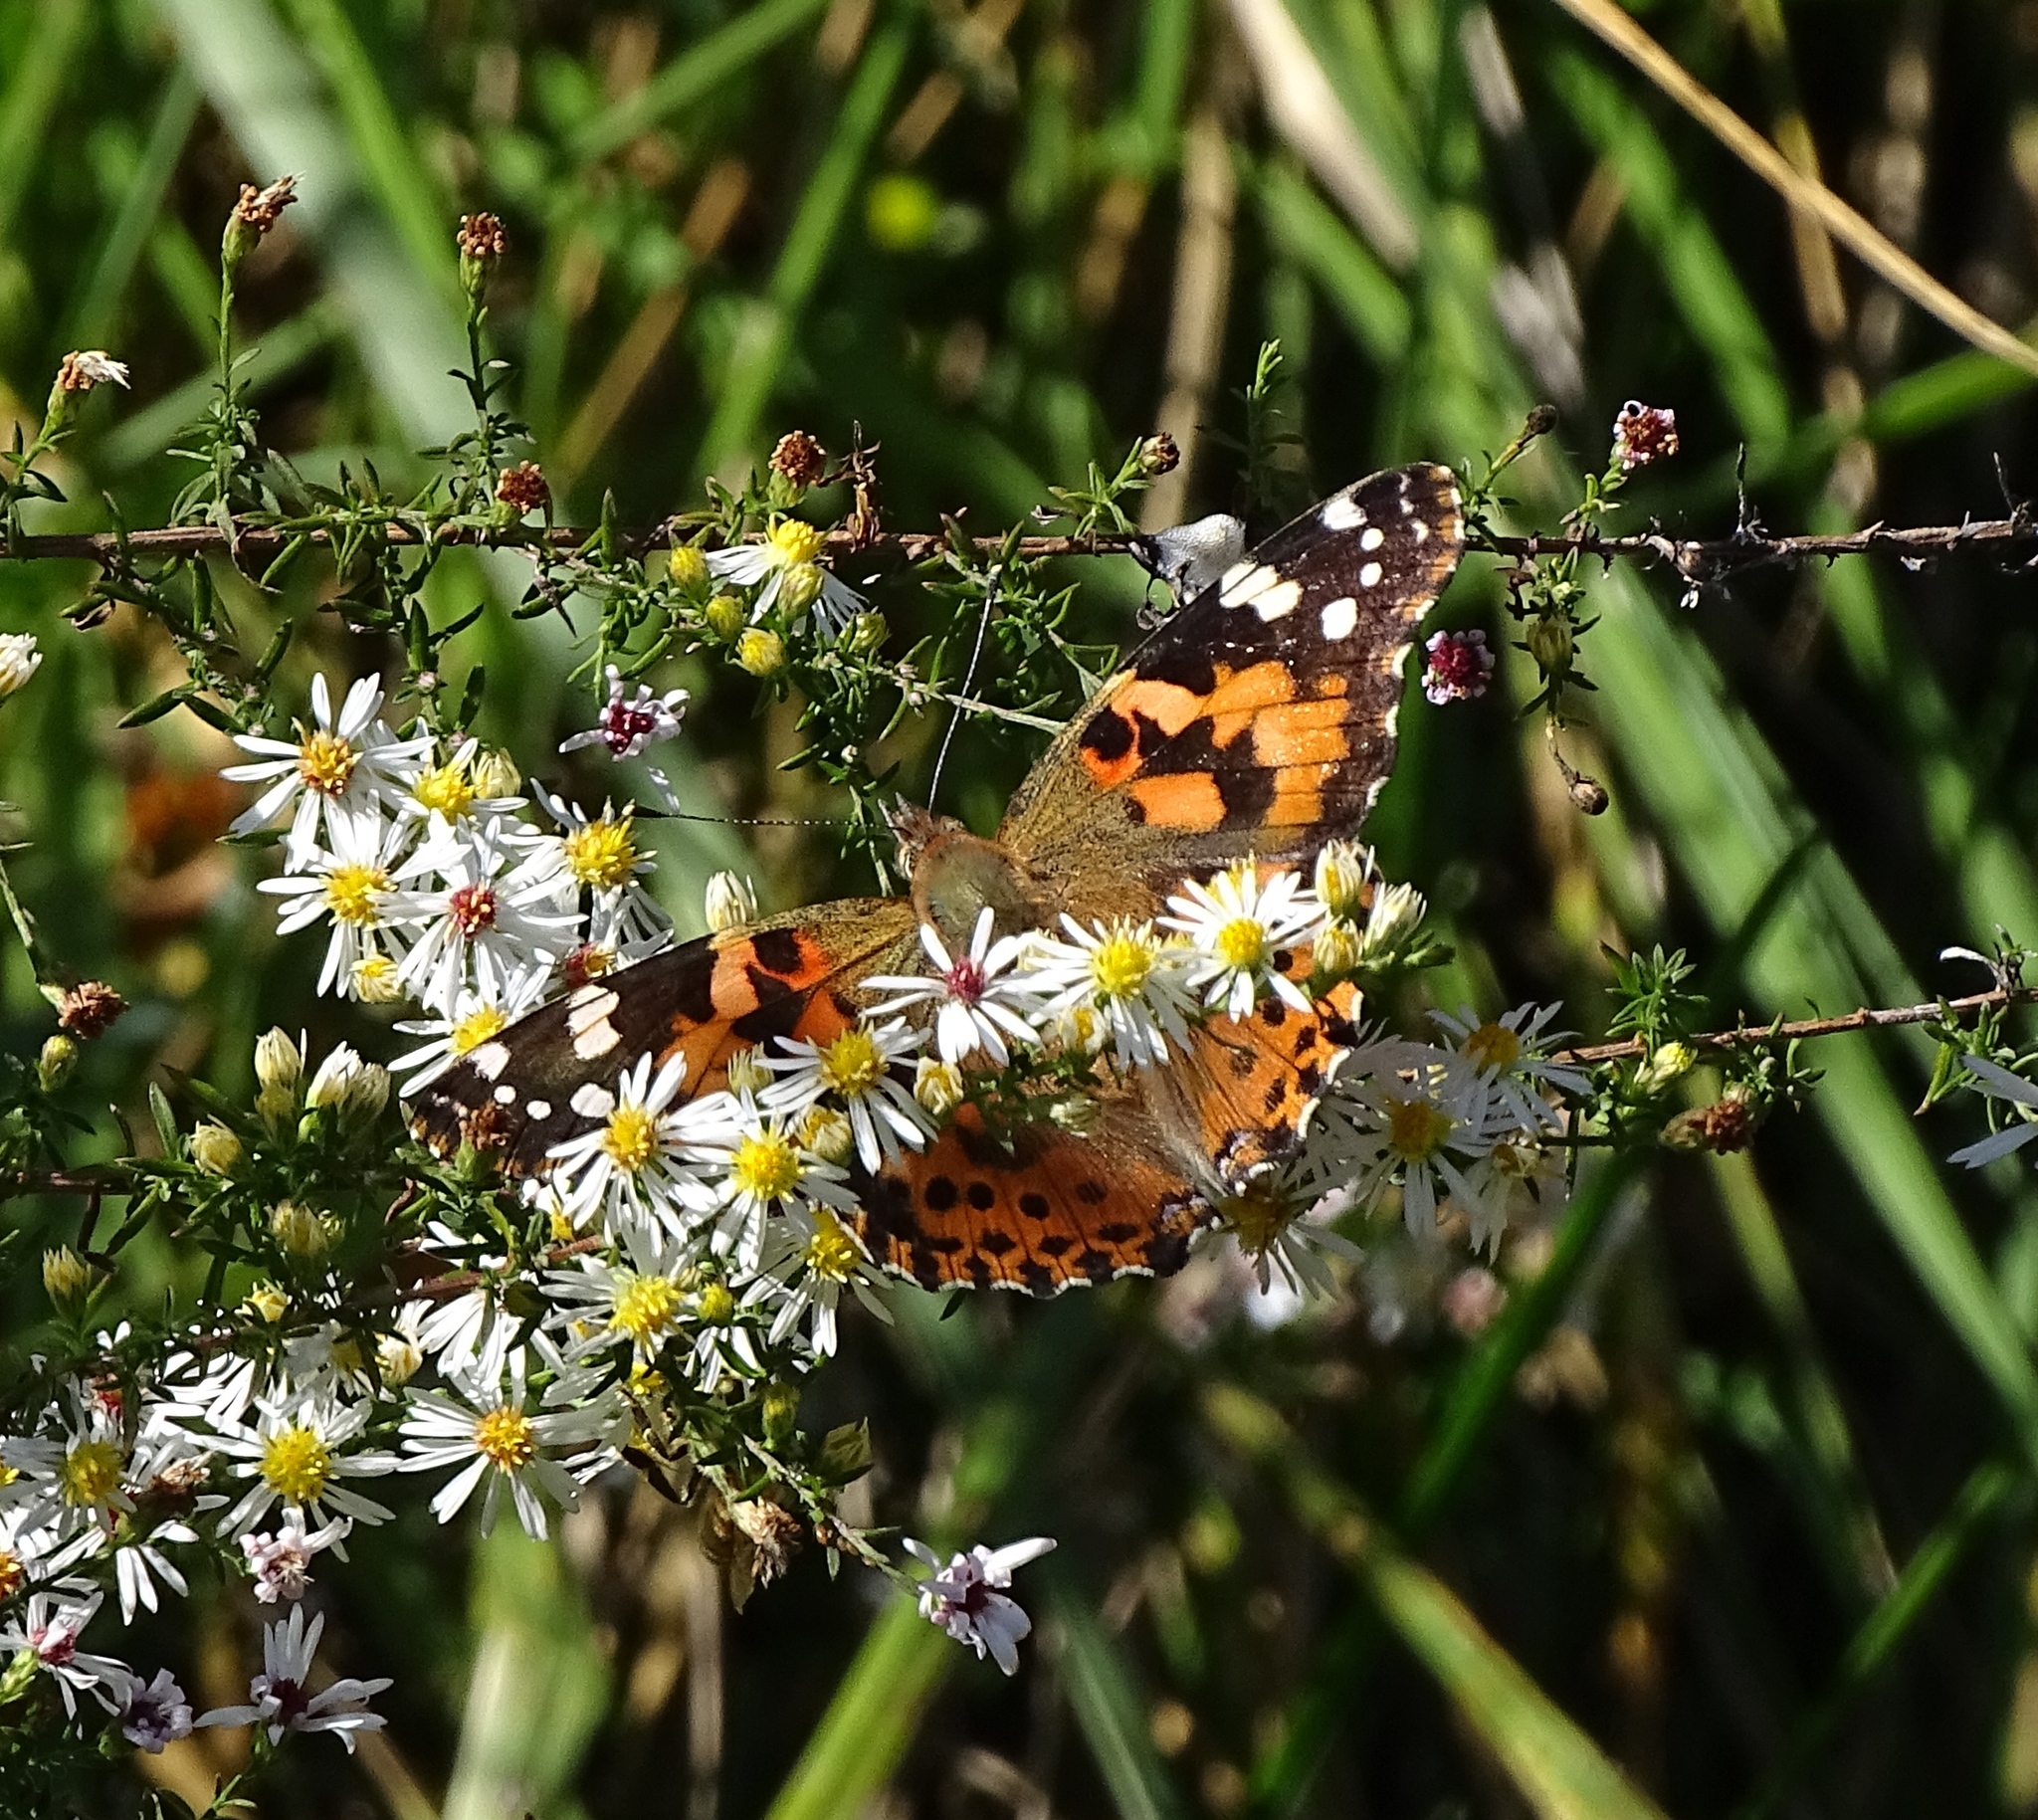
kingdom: Animalia
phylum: Arthropoda
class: Insecta
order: Lepidoptera
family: Nymphalidae
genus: Vanessa
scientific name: Vanessa cardui
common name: Painted lady
